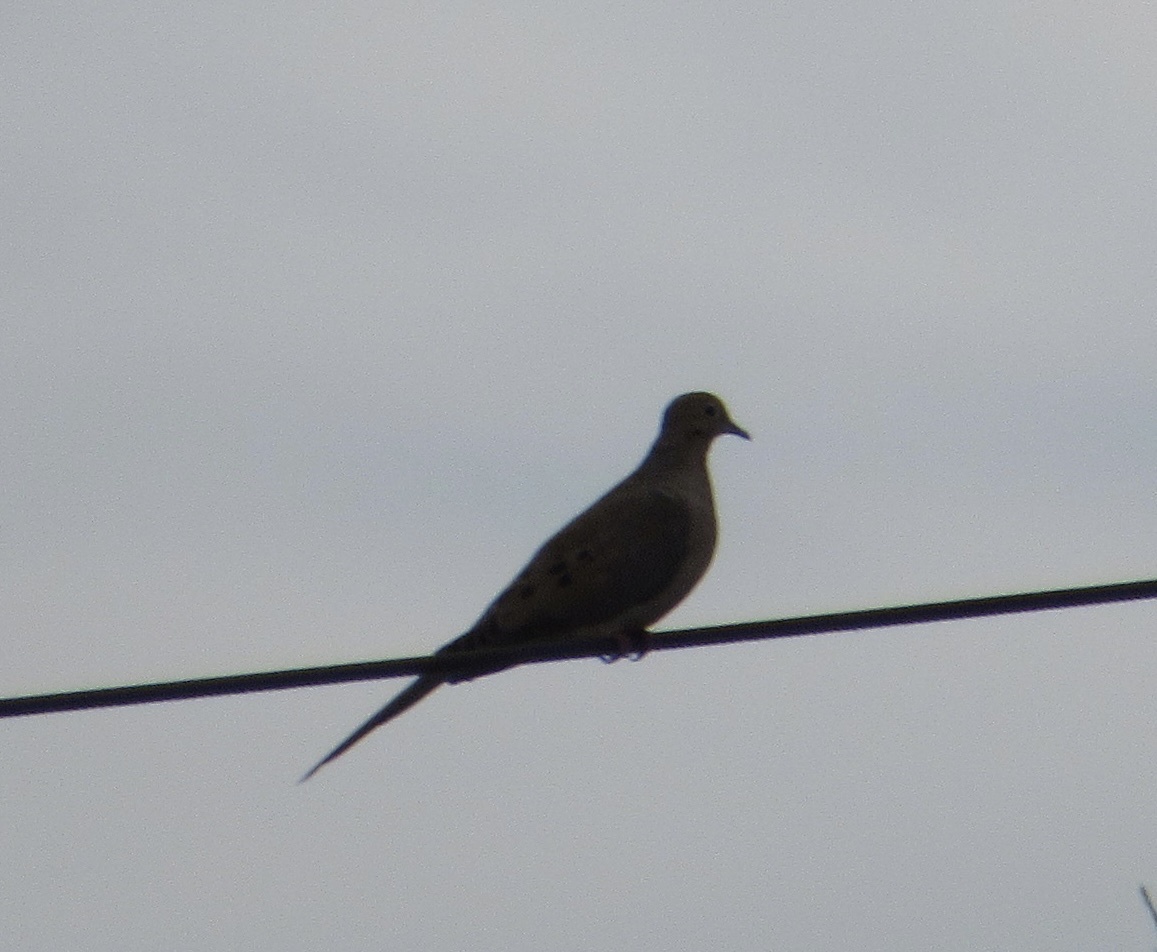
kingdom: Animalia
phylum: Chordata
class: Aves
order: Columbiformes
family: Columbidae
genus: Zenaida
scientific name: Zenaida macroura
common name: Mourning dove
